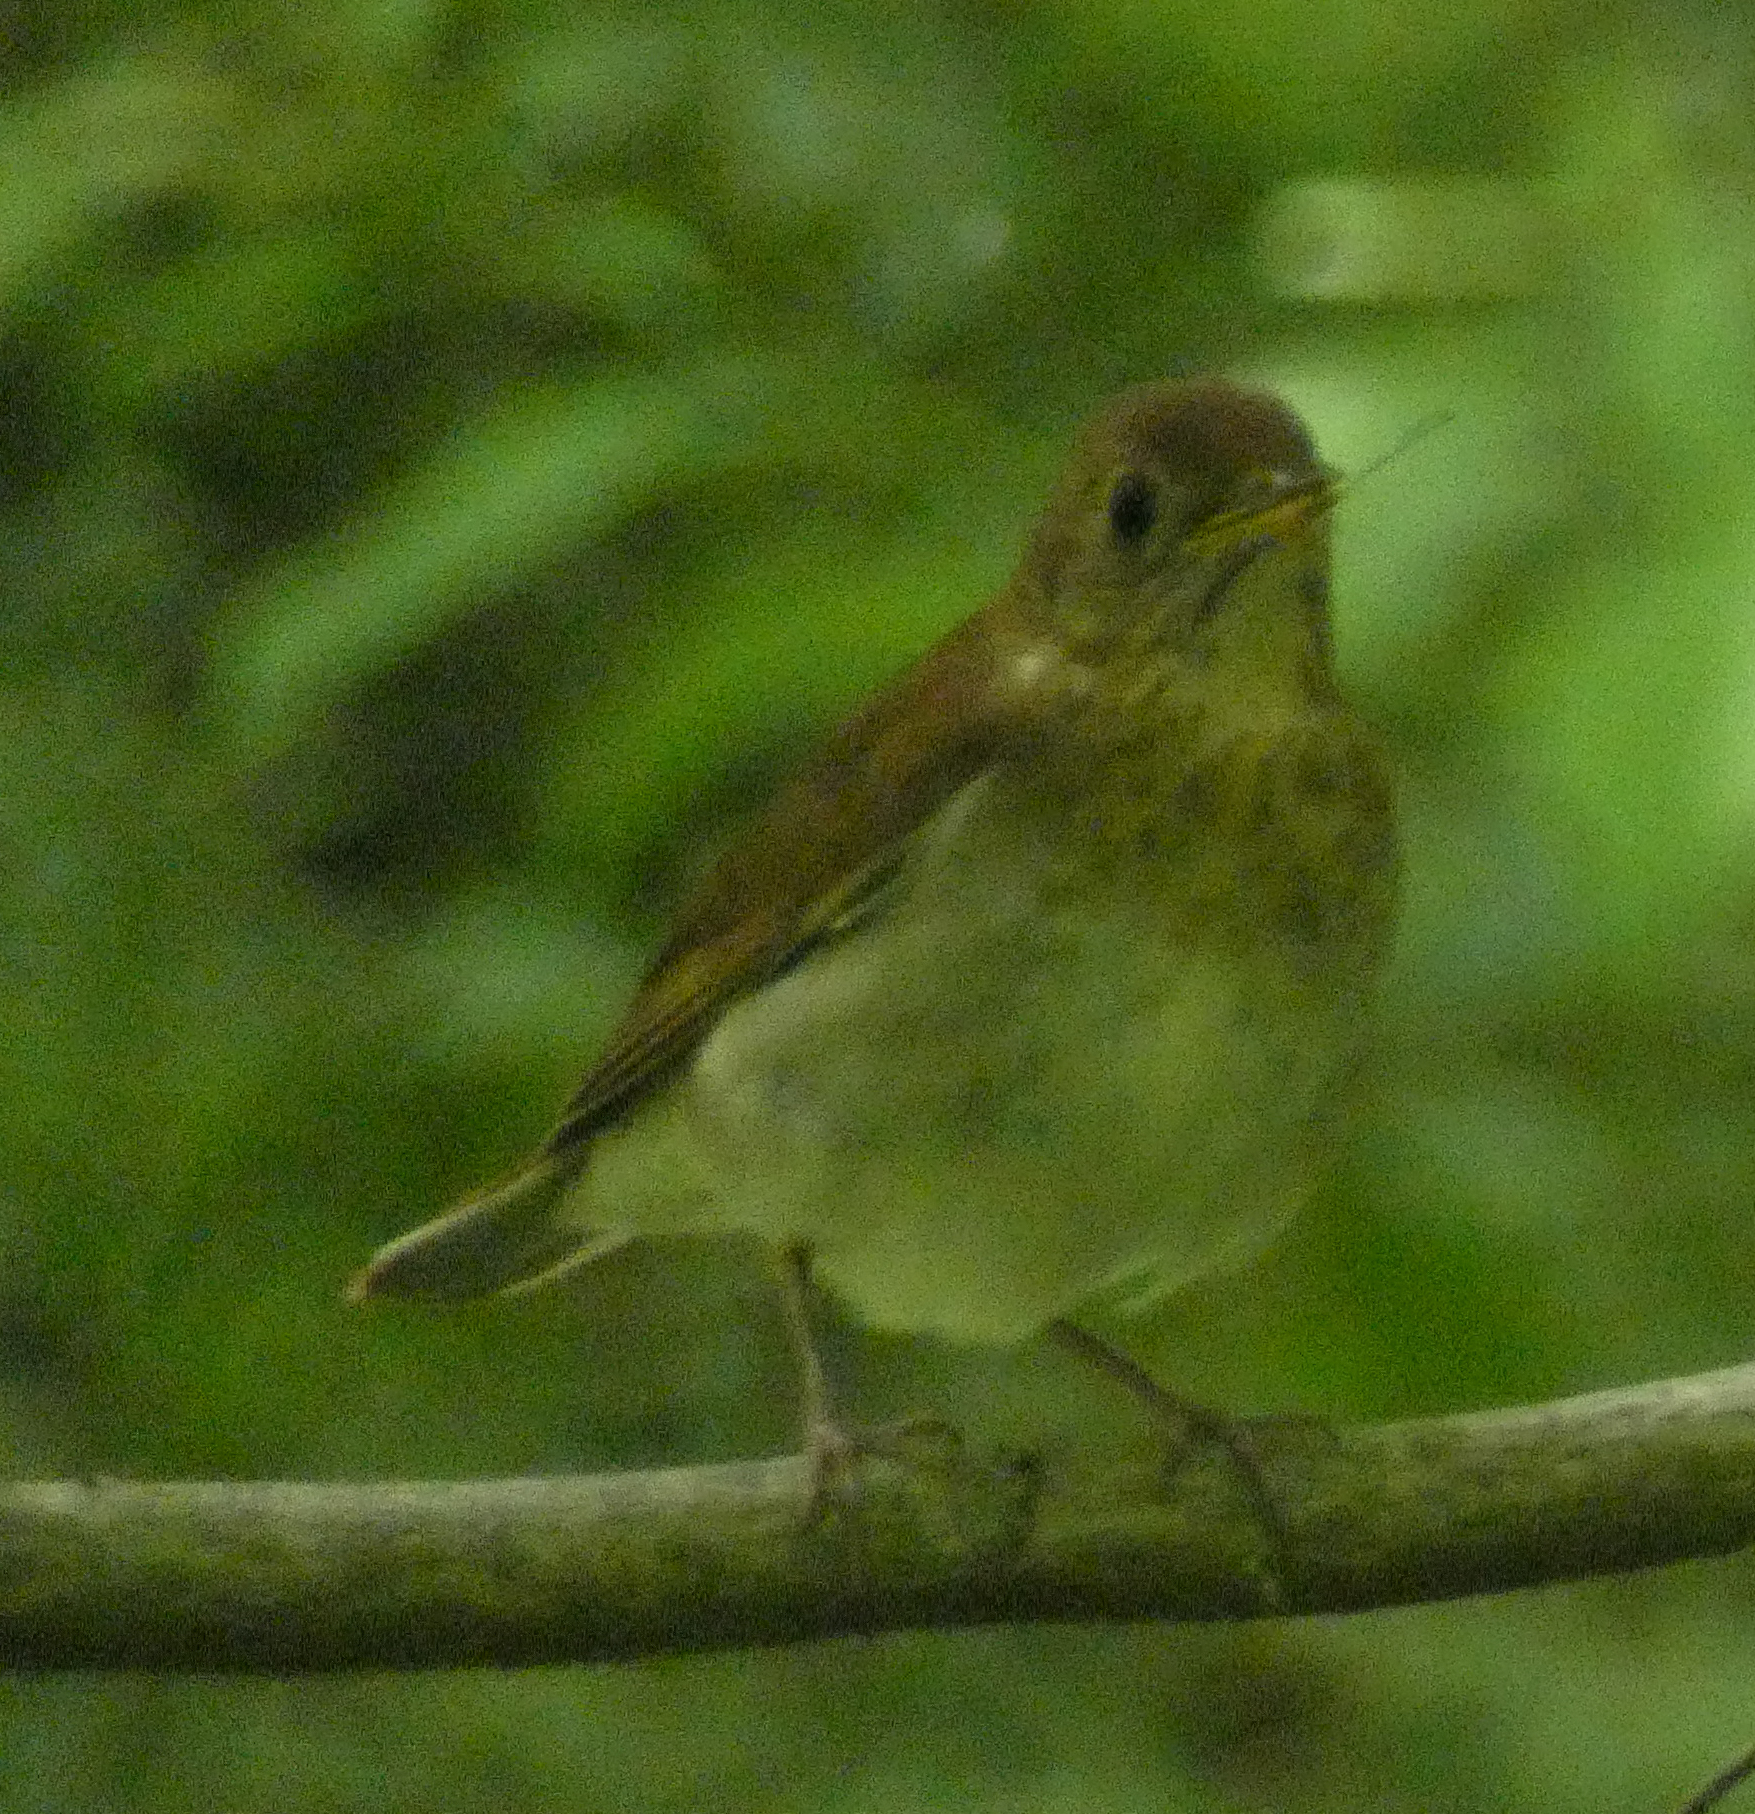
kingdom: Animalia
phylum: Chordata
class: Aves
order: Passeriformes
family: Turdidae
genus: Catharus
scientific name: Catharus fuscescens
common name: Veery
